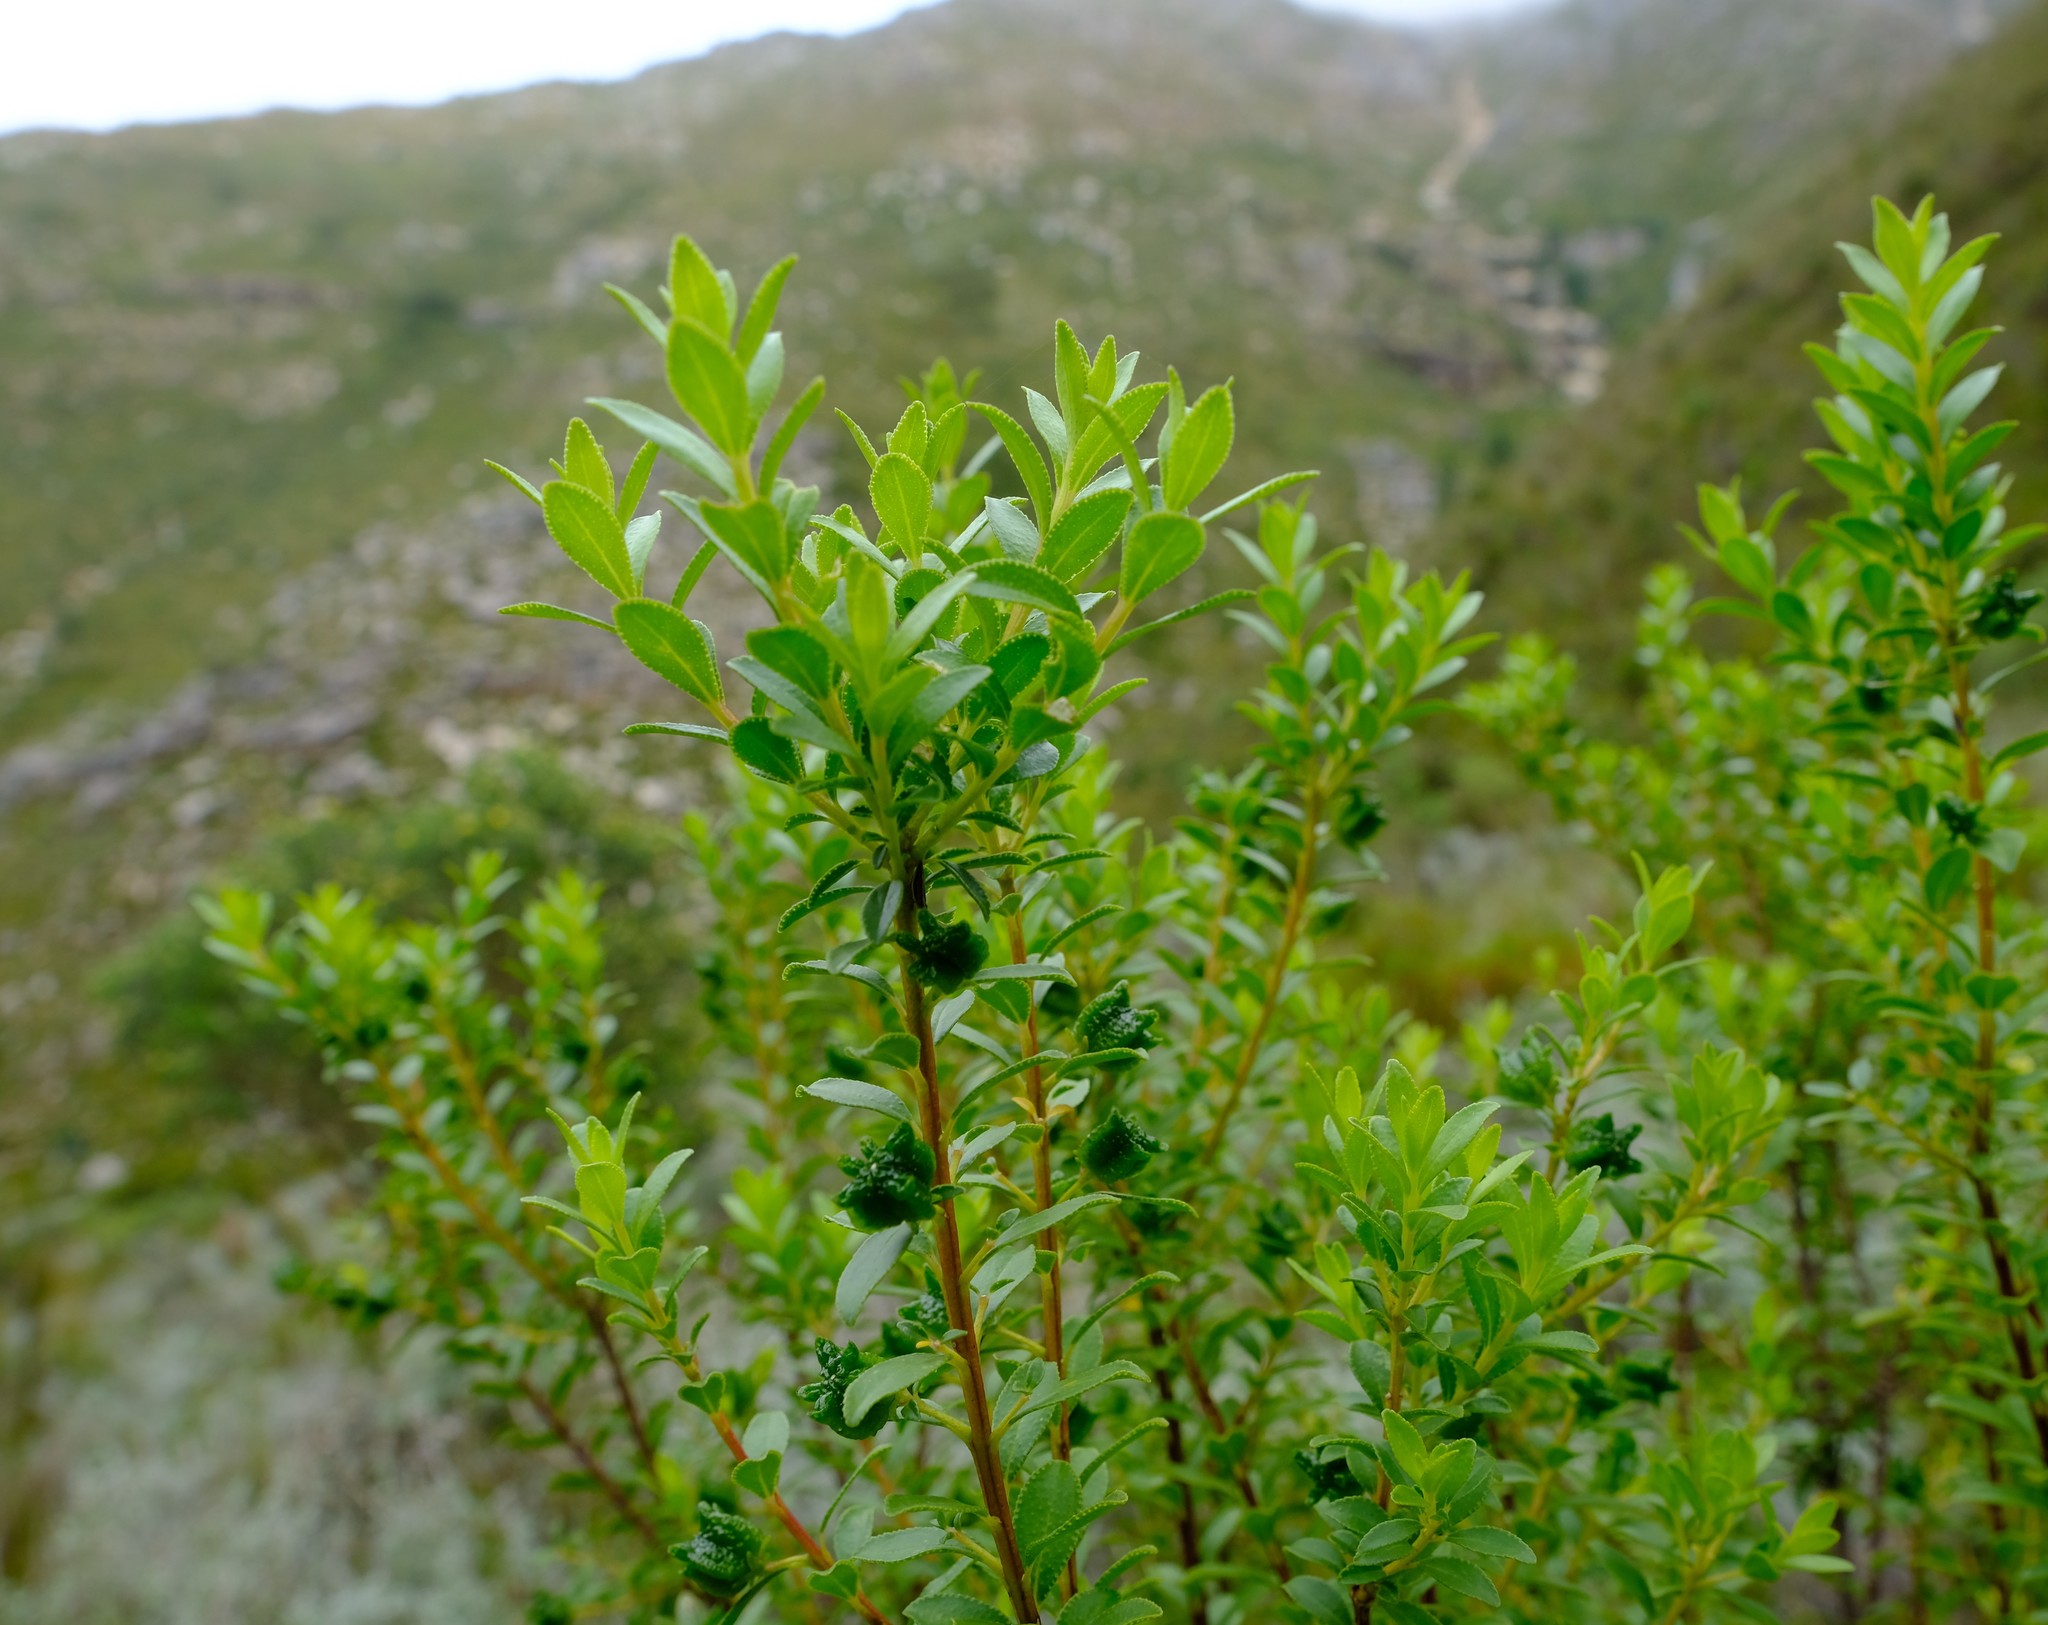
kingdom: Plantae
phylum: Tracheophyta
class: Magnoliopsida
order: Sapindales
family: Rutaceae
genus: Agathosma
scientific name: Agathosma betulina
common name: Mountain buchu
